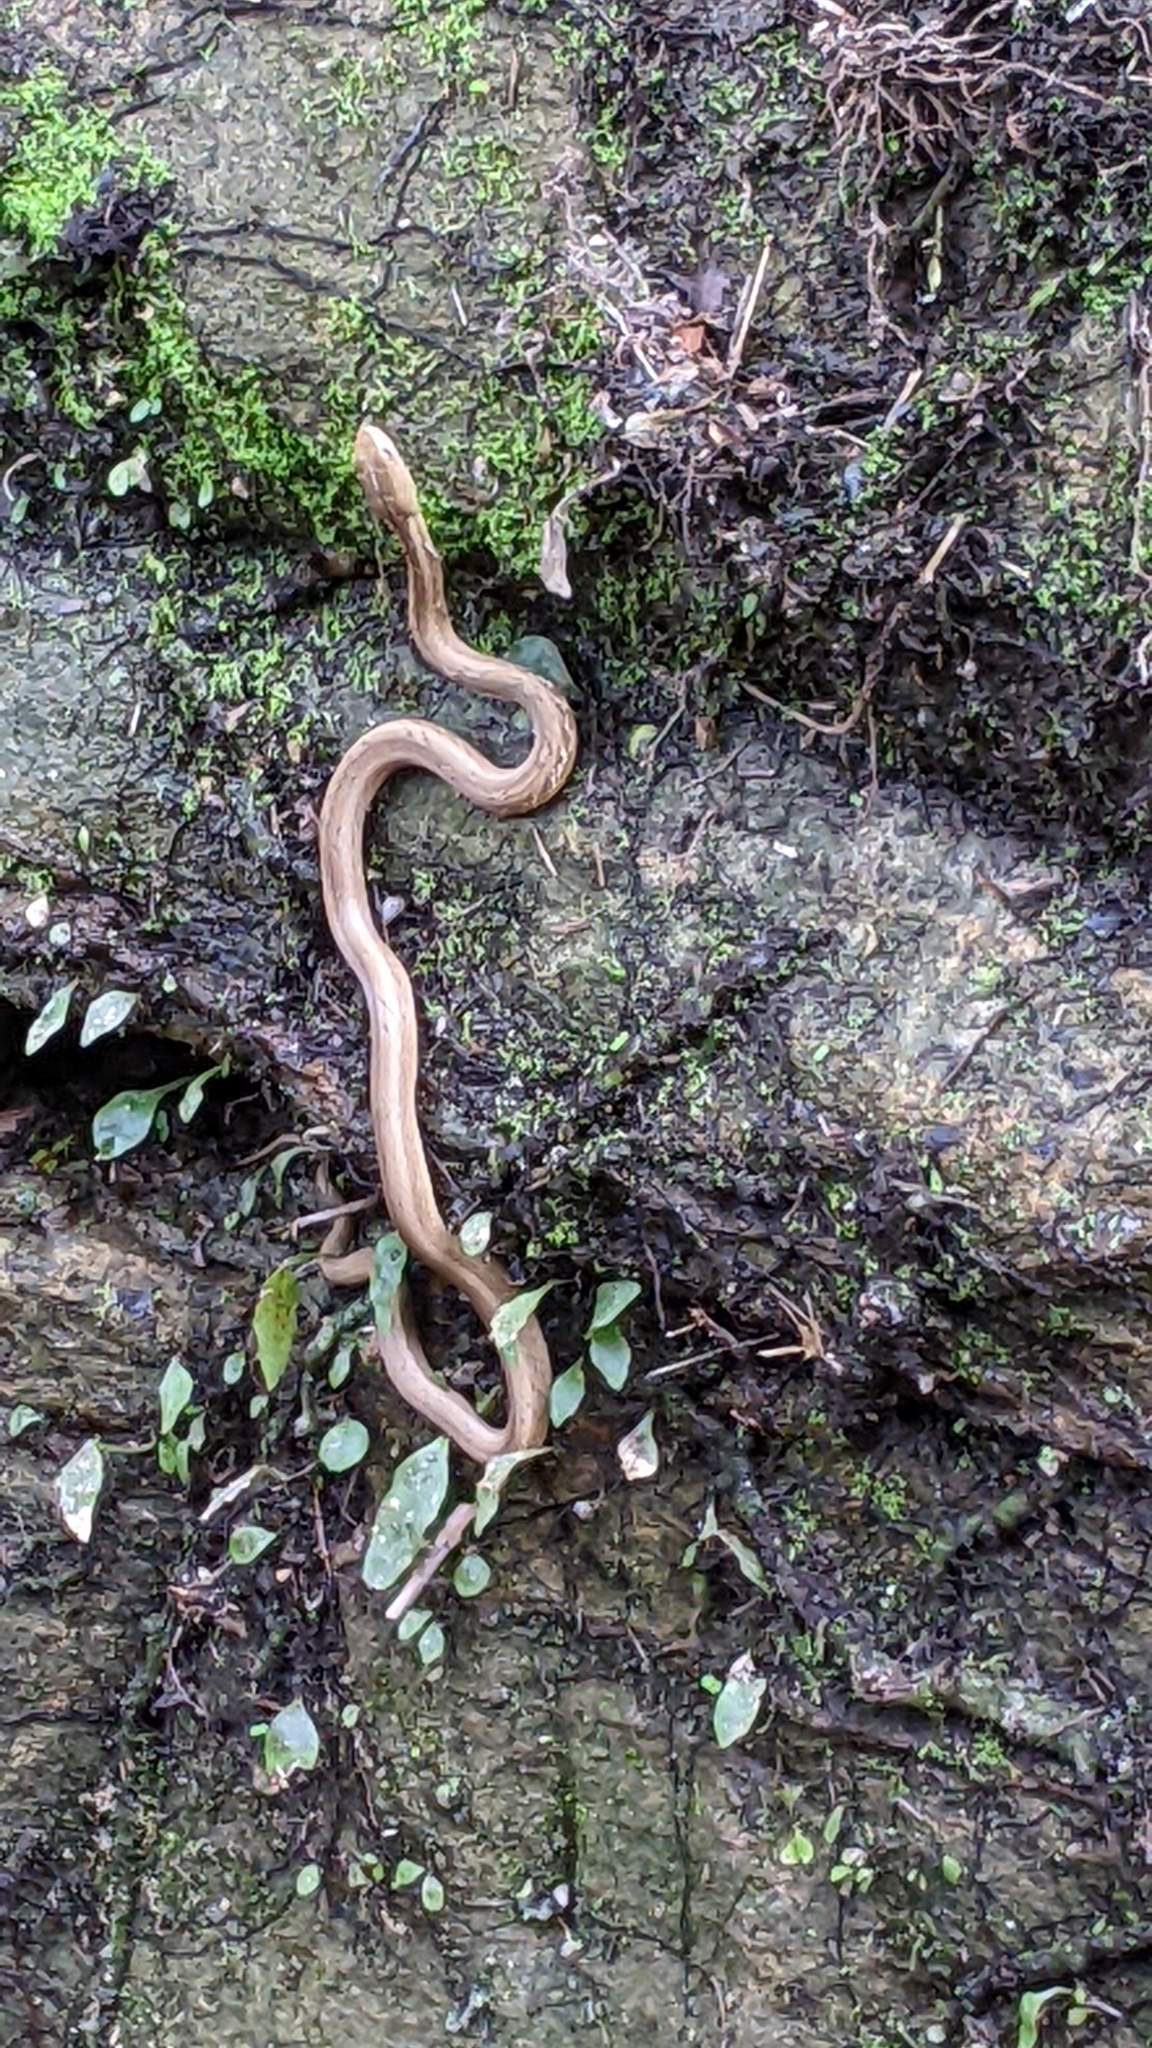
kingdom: Animalia
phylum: Chordata
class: Squamata
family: Pseudaspididae
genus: Psammodynastes
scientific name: Psammodynastes pulverulentus
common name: Common mock viper
